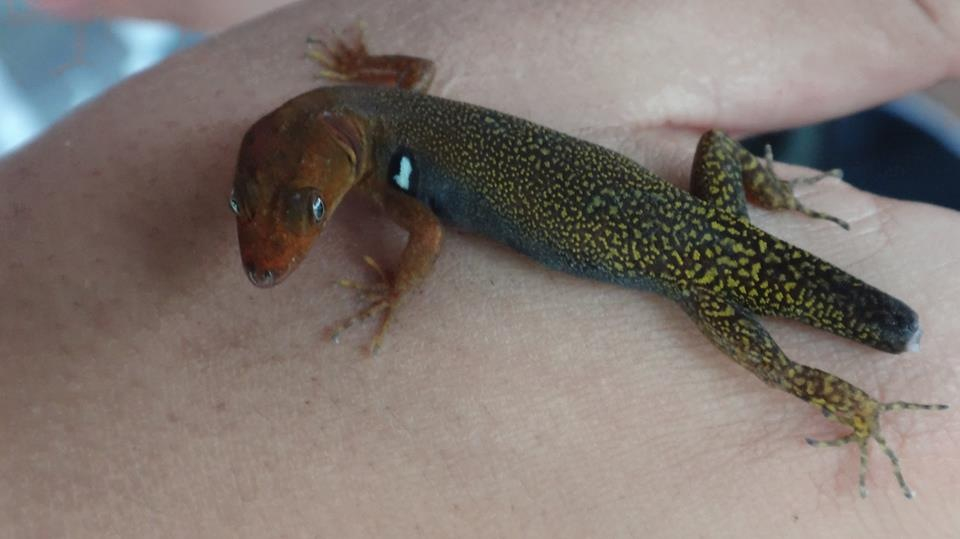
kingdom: Animalia
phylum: Chordata
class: Squamata
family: Sphaerodactylidae
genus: Gonatodes
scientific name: Gonatodes riveroi
